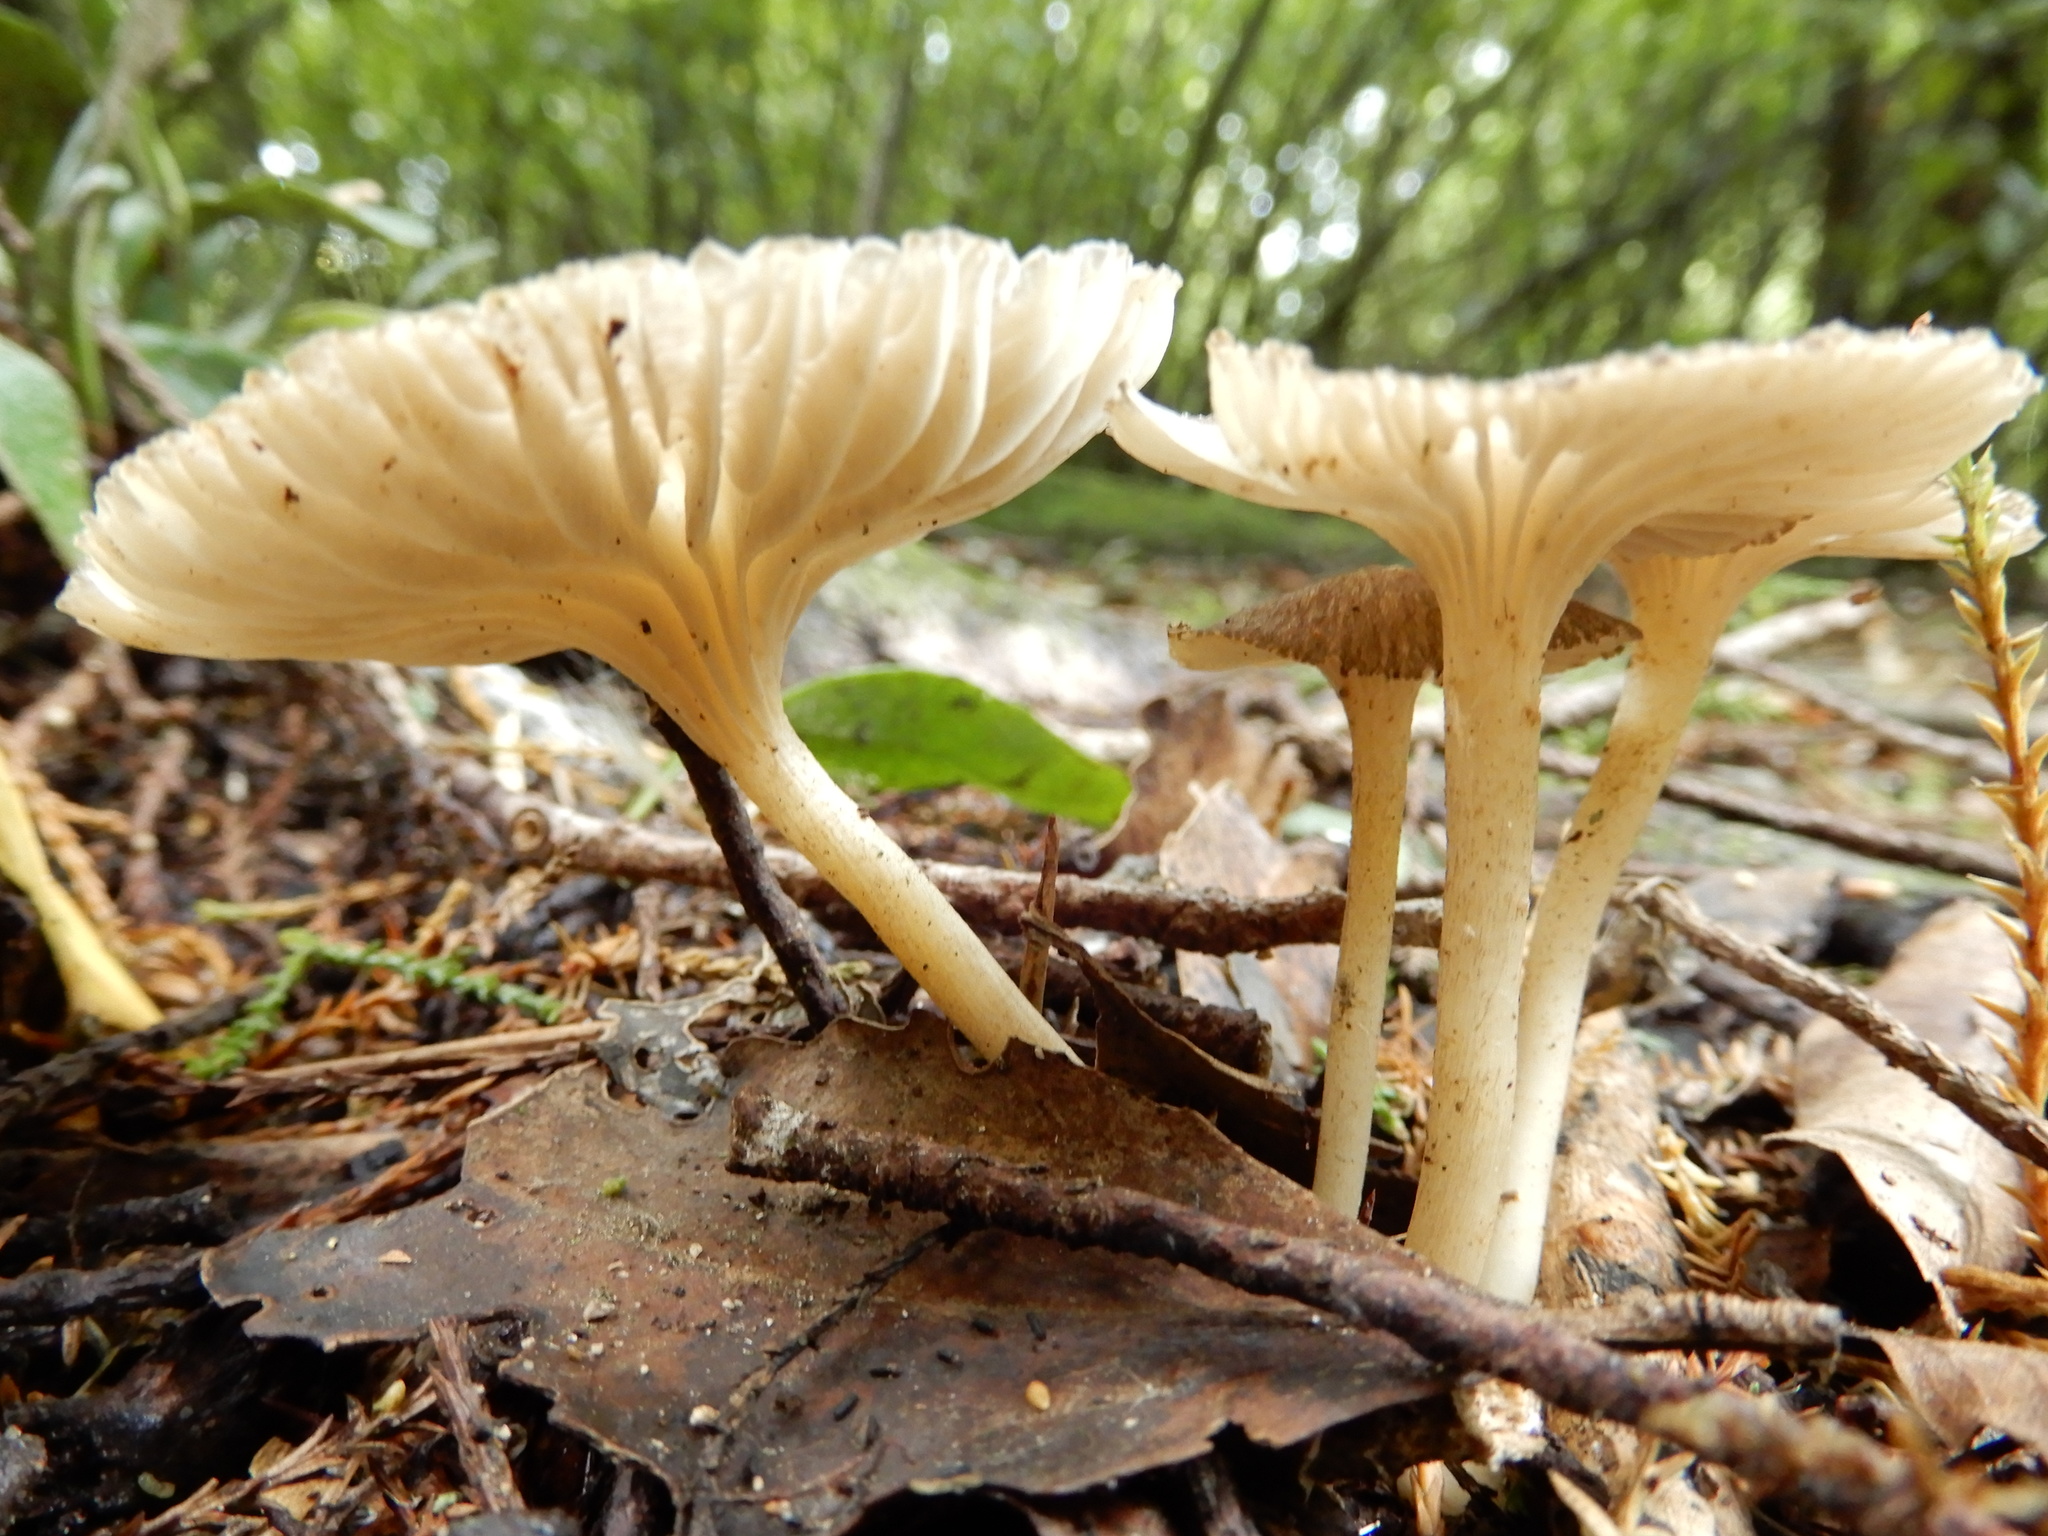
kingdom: Fungi
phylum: Basidiomycota
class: Agaricomycetes
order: Agaricales
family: Marasmiaceae
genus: Gerronema
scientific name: Gerronema
